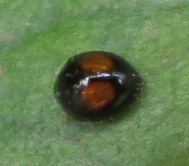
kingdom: Animalia
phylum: Arthropoda
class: Insecta
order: Coleoptera
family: Coccinellidae
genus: Serangium
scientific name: Serangium maculigerum
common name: Lady beetle
